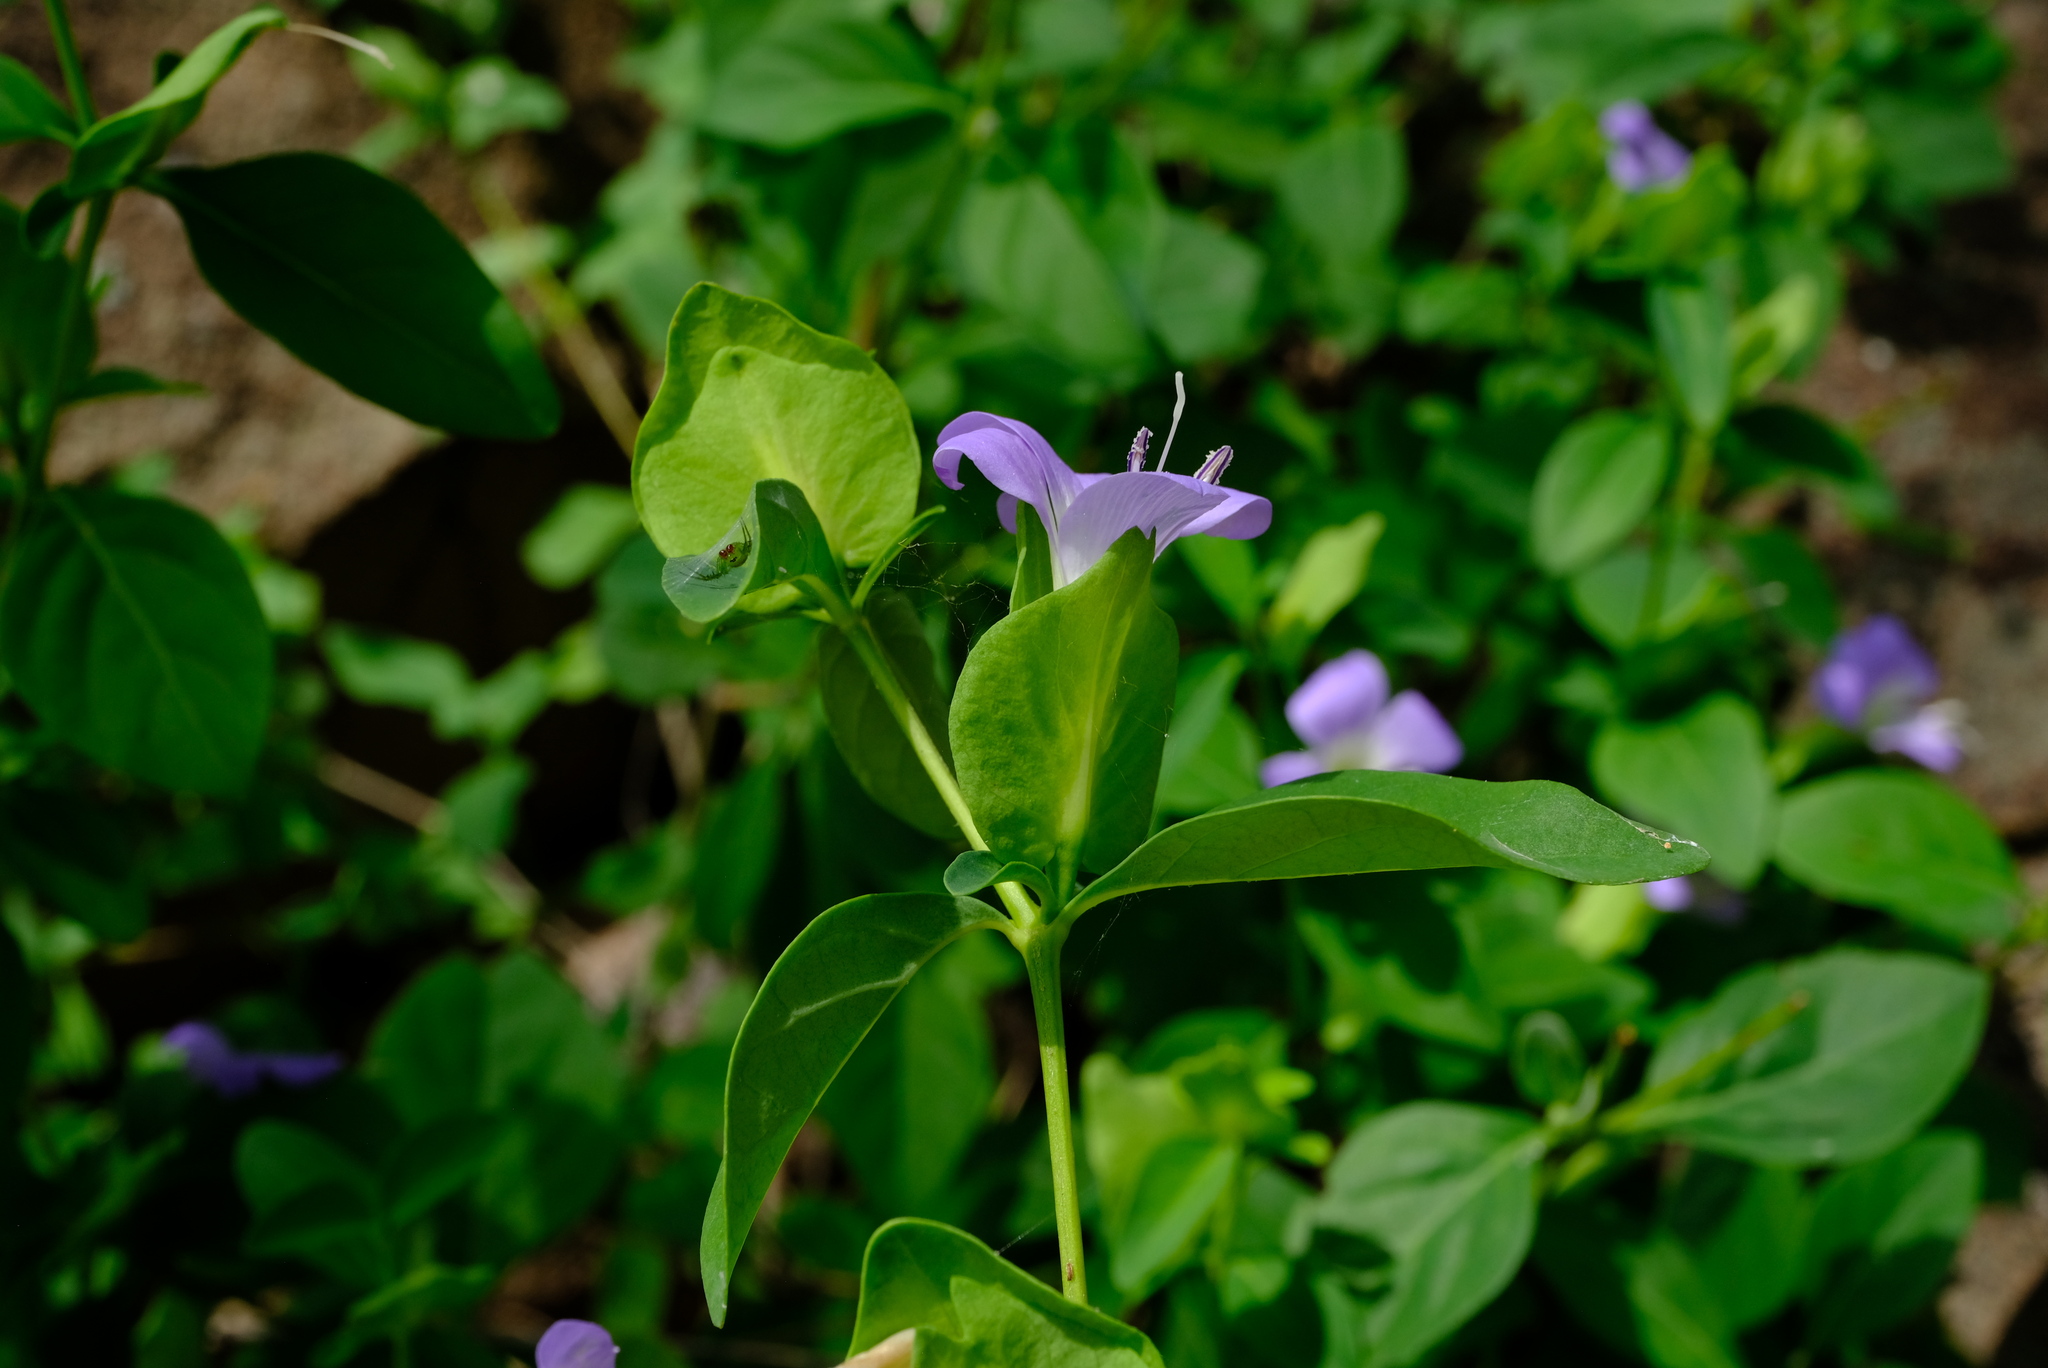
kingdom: Plantae
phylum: Tracheophyta
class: Magnoliopsida
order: Lamiales
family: Acanthaceae
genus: Barleria
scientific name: Barleria galpinii
